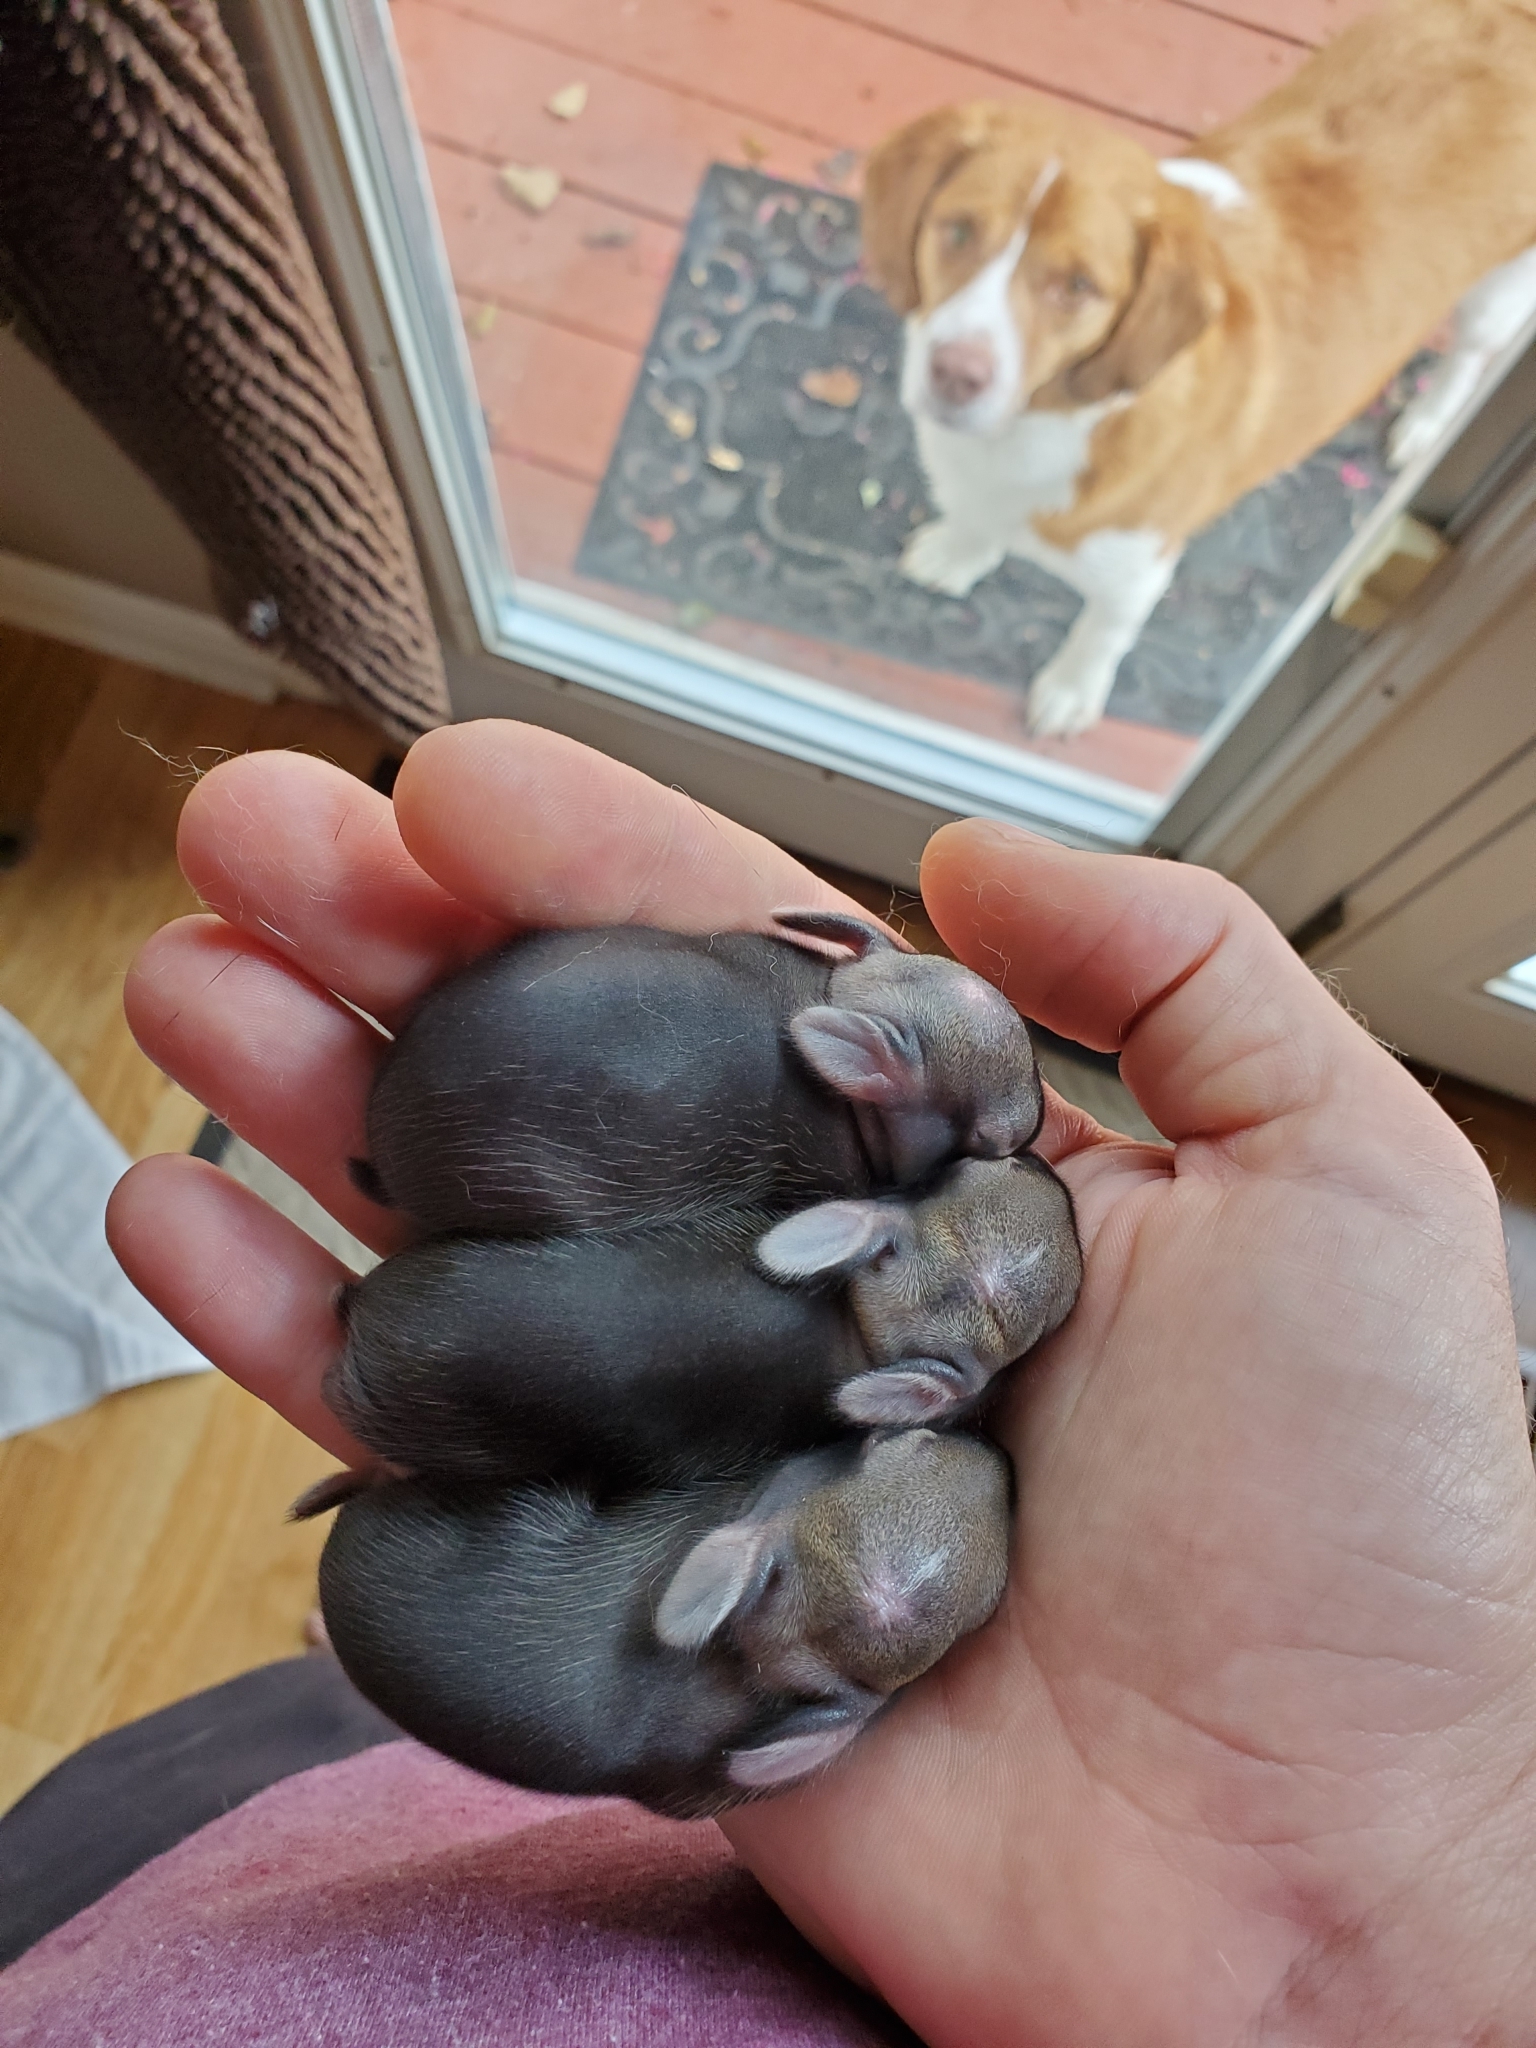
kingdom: Animalia
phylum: Chordata
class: Mammalia
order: Lagomorpha
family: Leporidae
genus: Sylvilagus
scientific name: Sylvilagus floridanus
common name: Eastern cottontail
